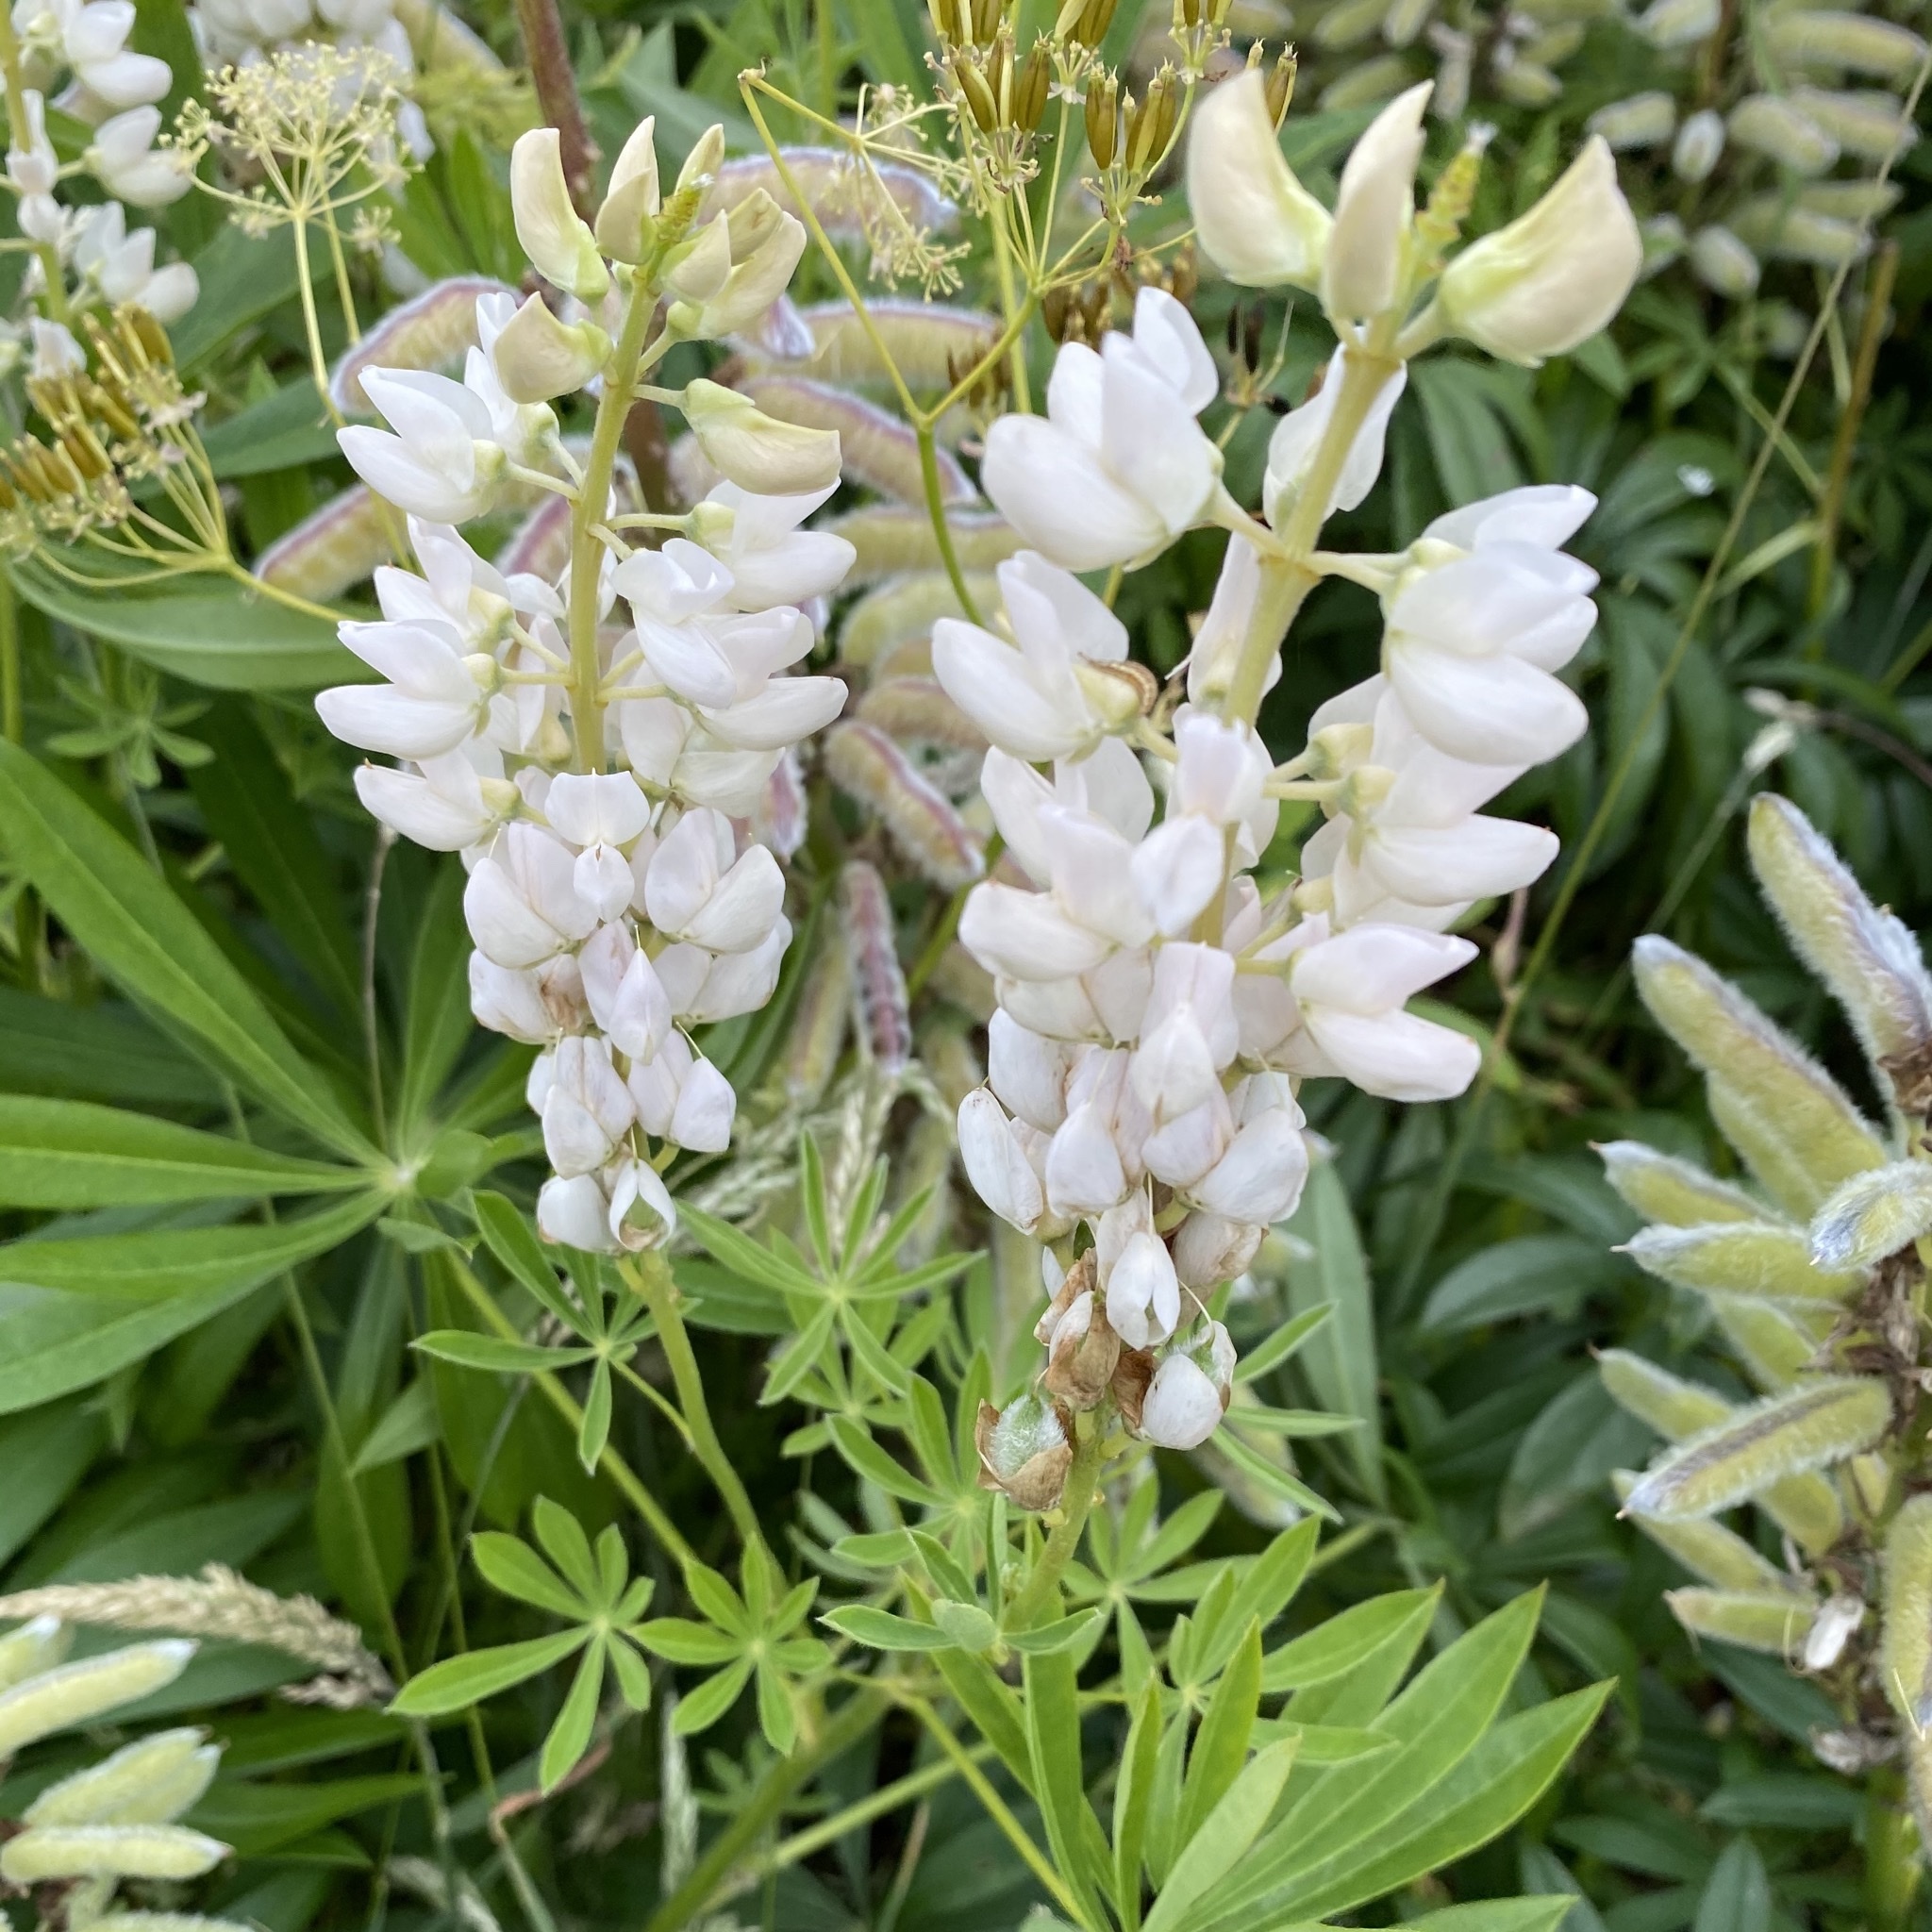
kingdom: Plantae
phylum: Tracheophyta
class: Magnoliopsida
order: Fabales
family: Fabaceae
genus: Lupinus
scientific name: Lupinus polyphyllus
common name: Garden lupin
